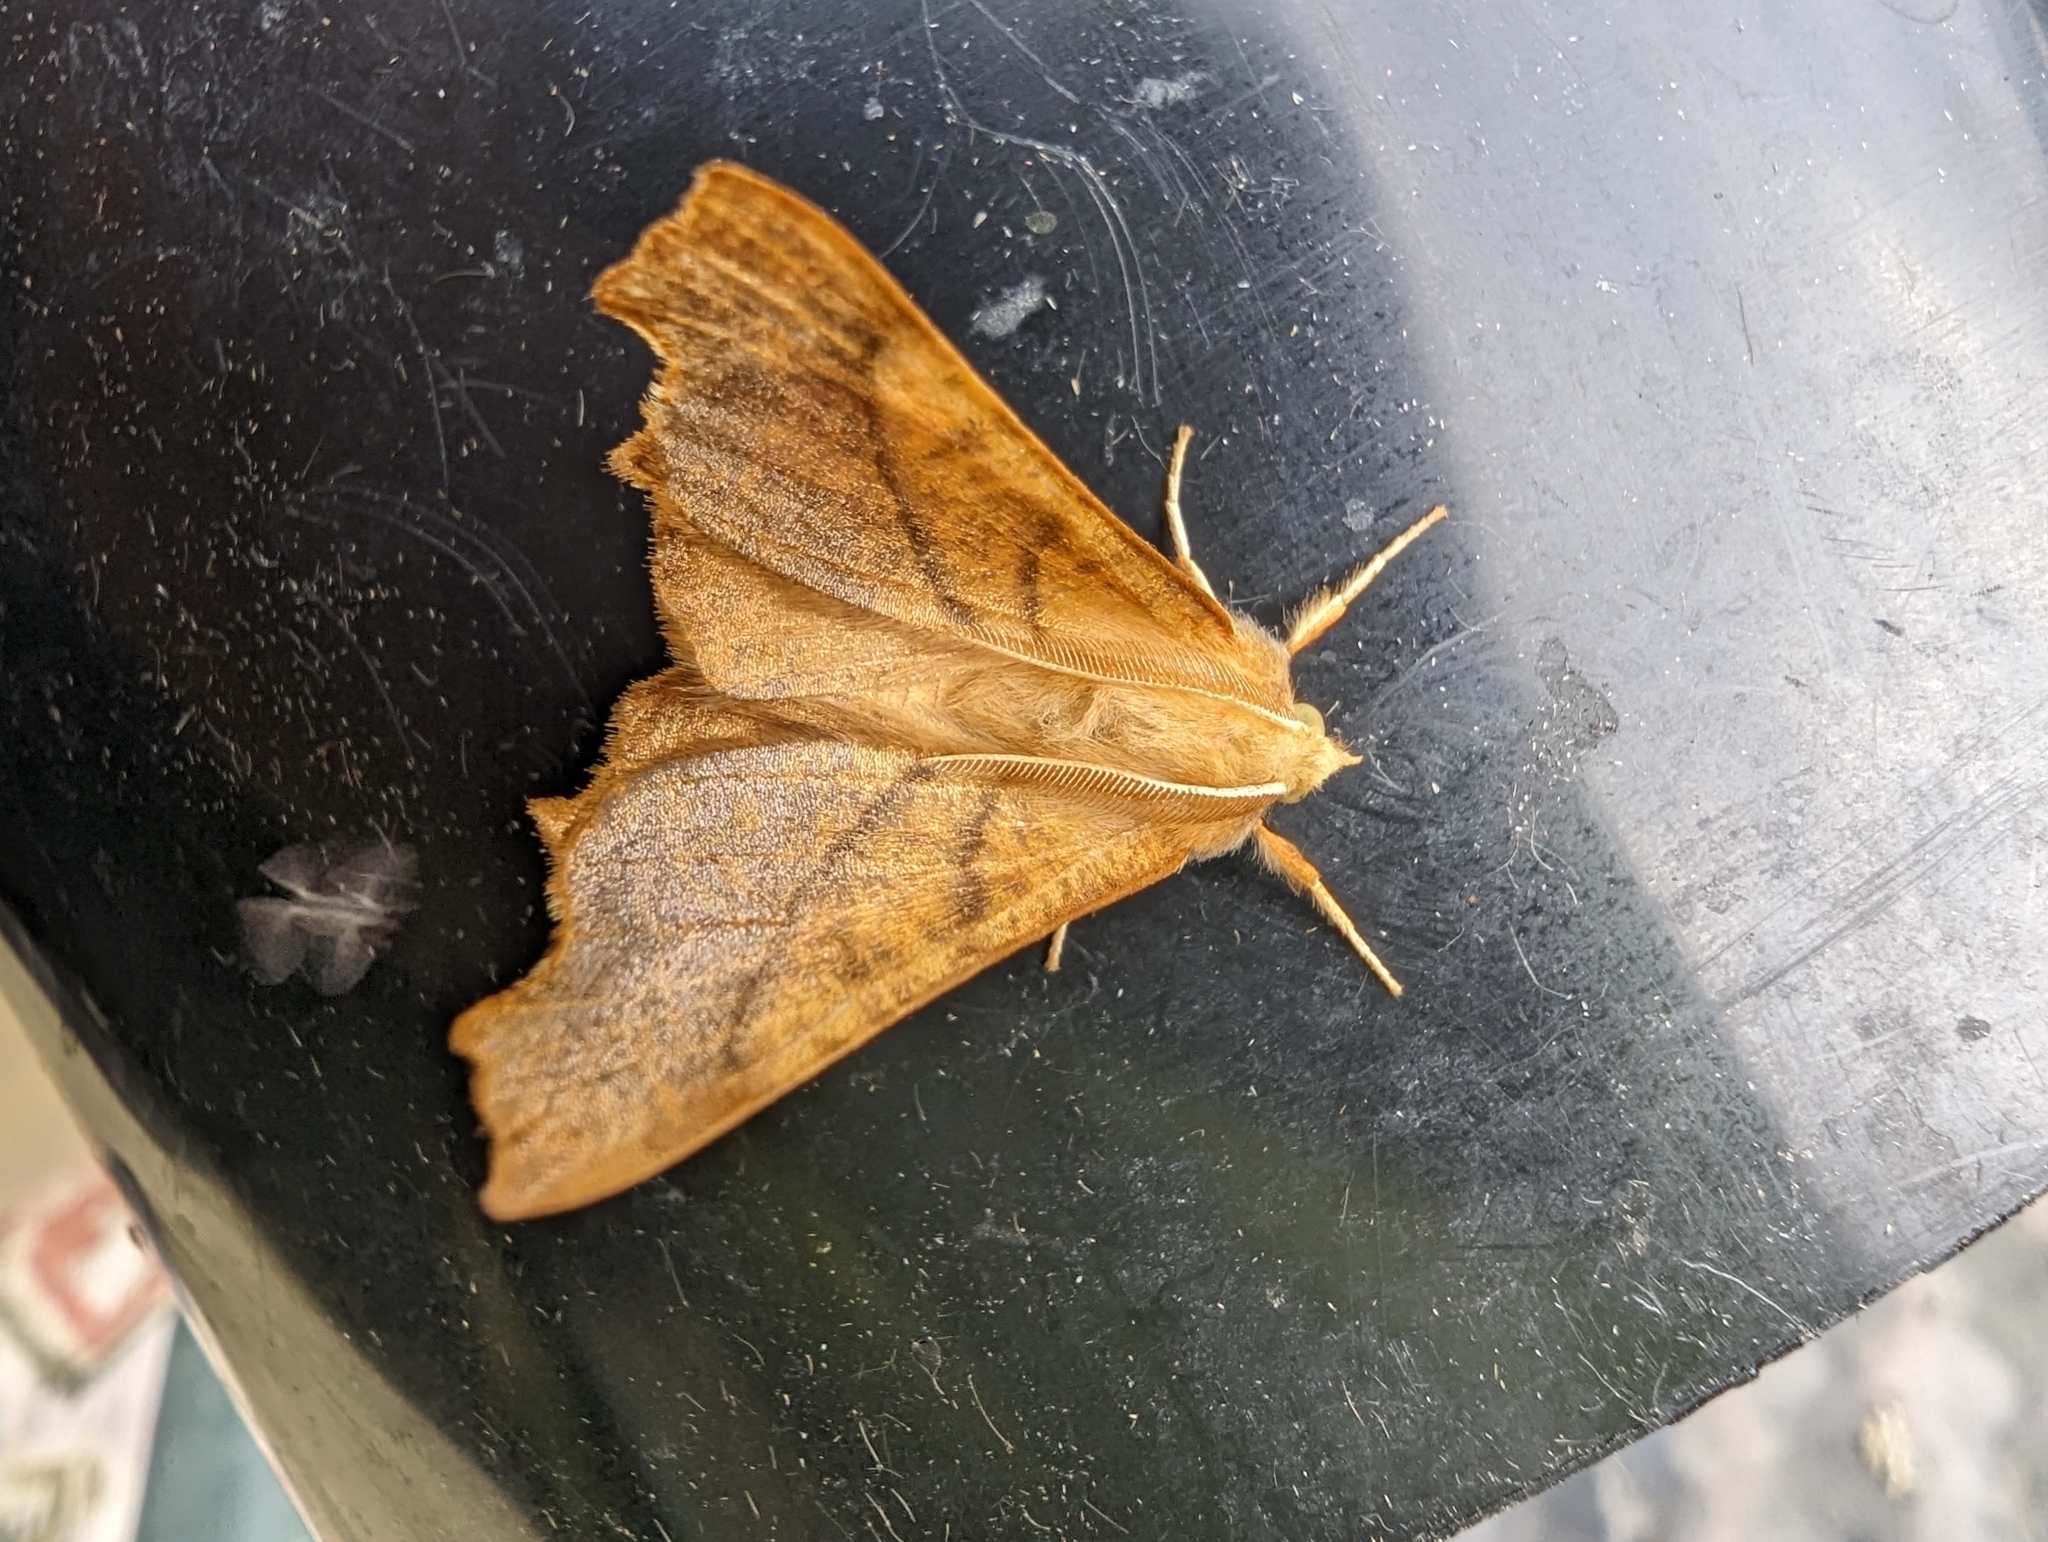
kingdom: Animalia
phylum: Arthropoda
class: Insecta
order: Lepidoptera
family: Geometridae
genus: Ennomos
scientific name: Ennomos fuscantaria
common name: Dusky thorn
